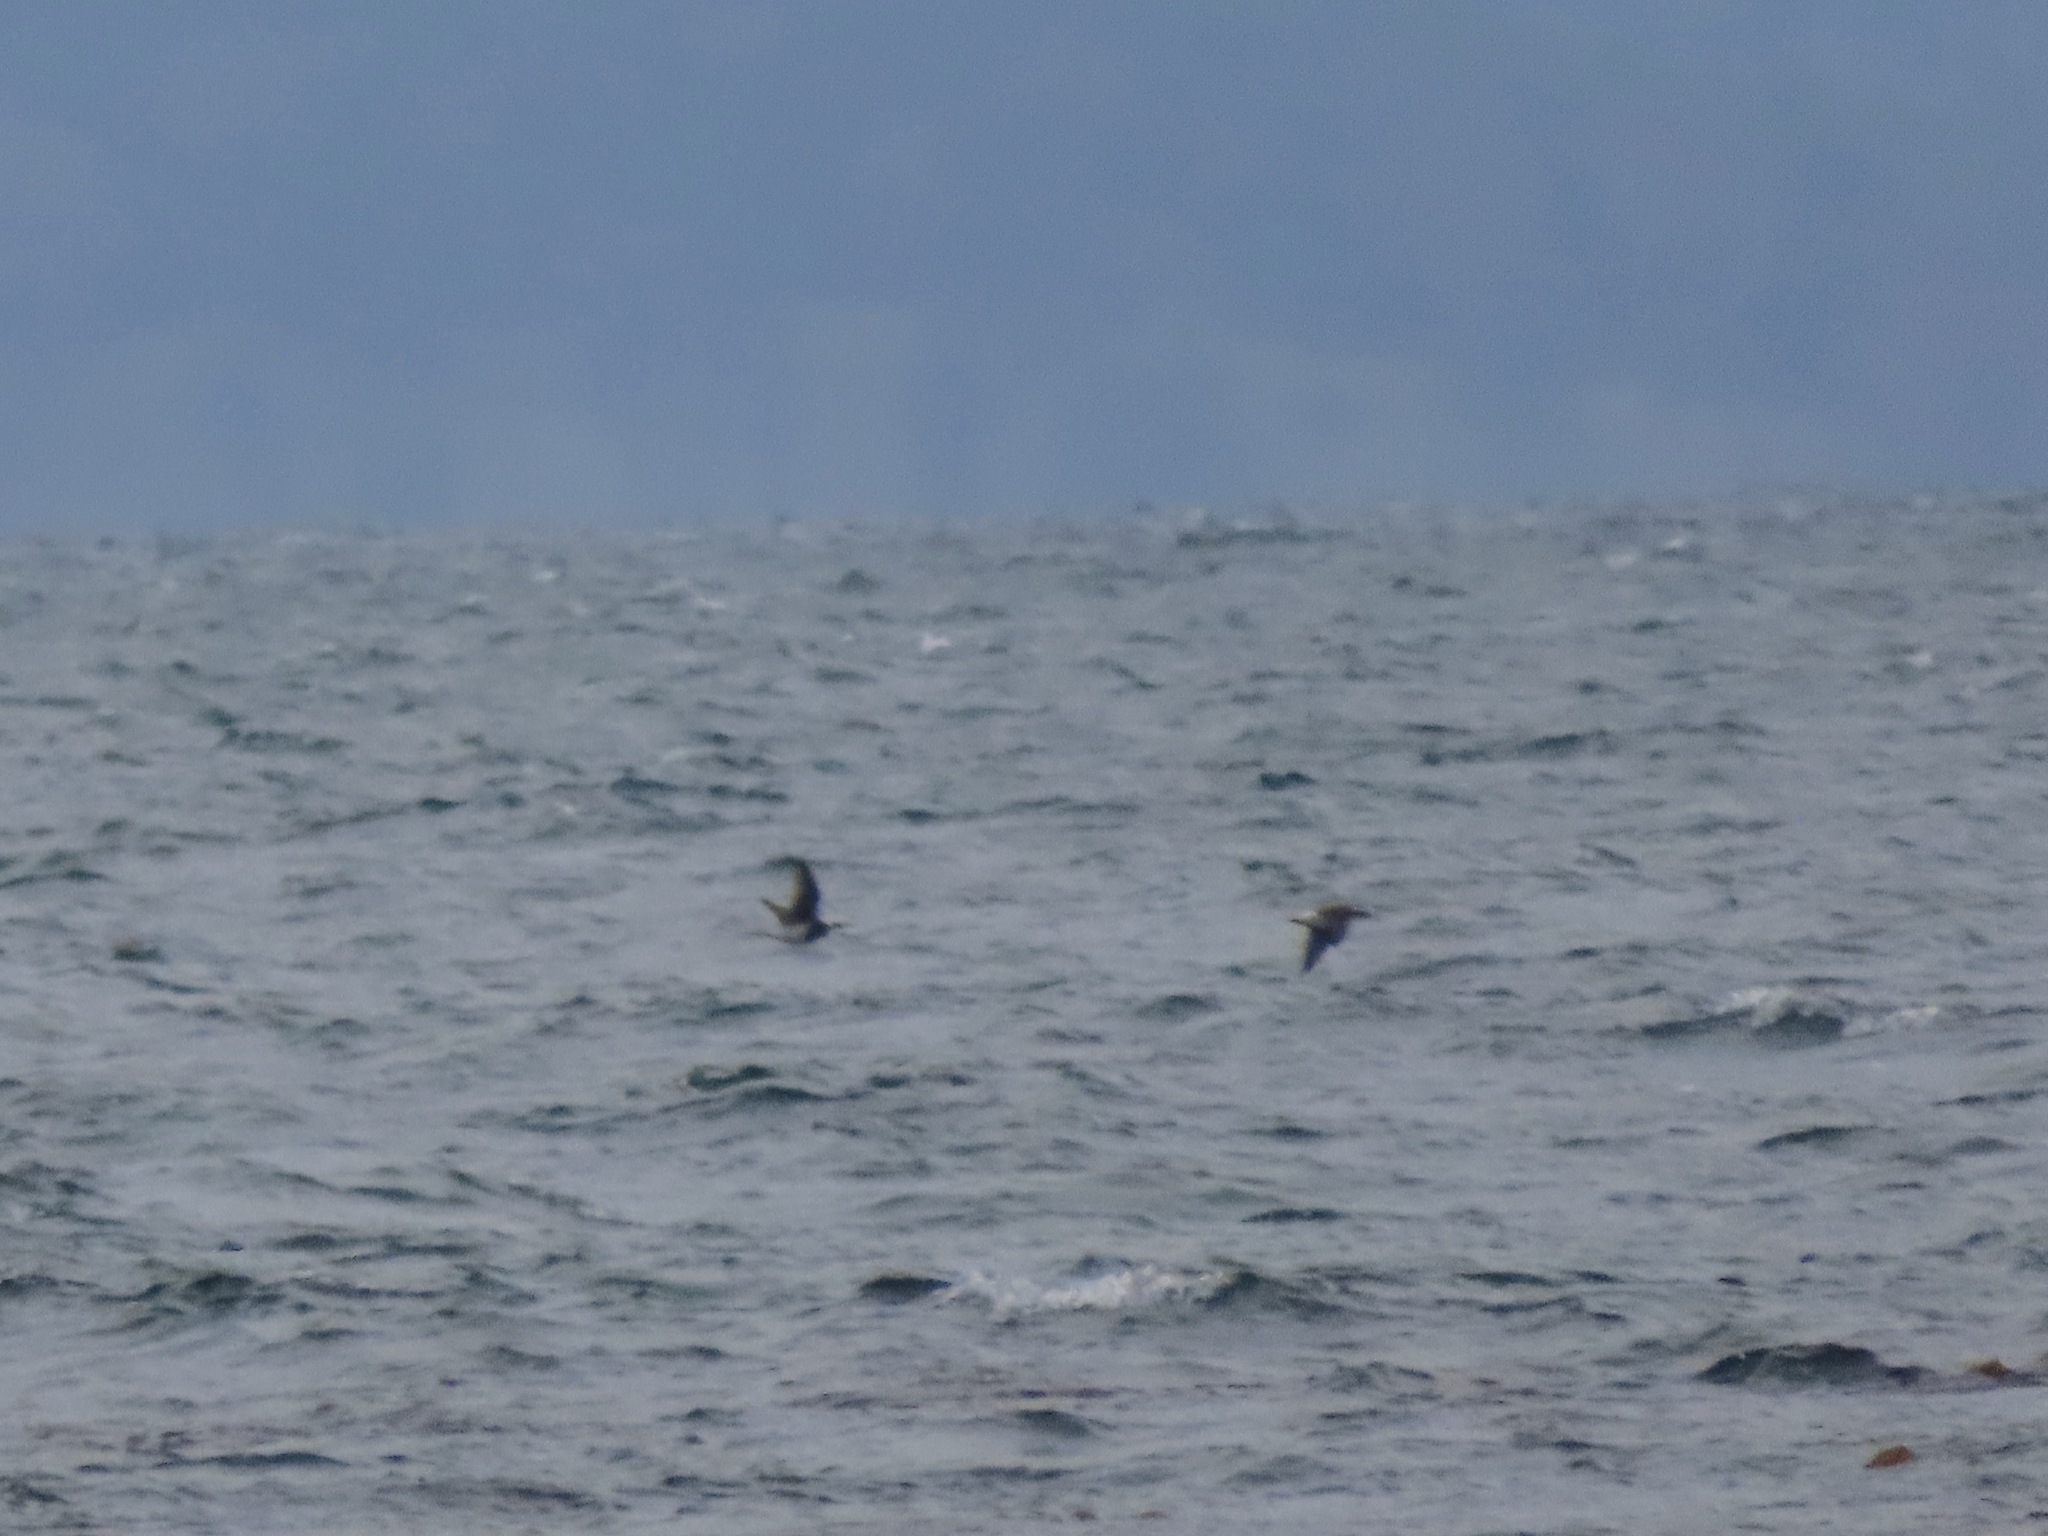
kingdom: Animalia
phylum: Chordata
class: Aves
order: Anseriformes
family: Anatidae
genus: Clangula
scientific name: Clangula hyemalis
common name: Long-tailed duck
